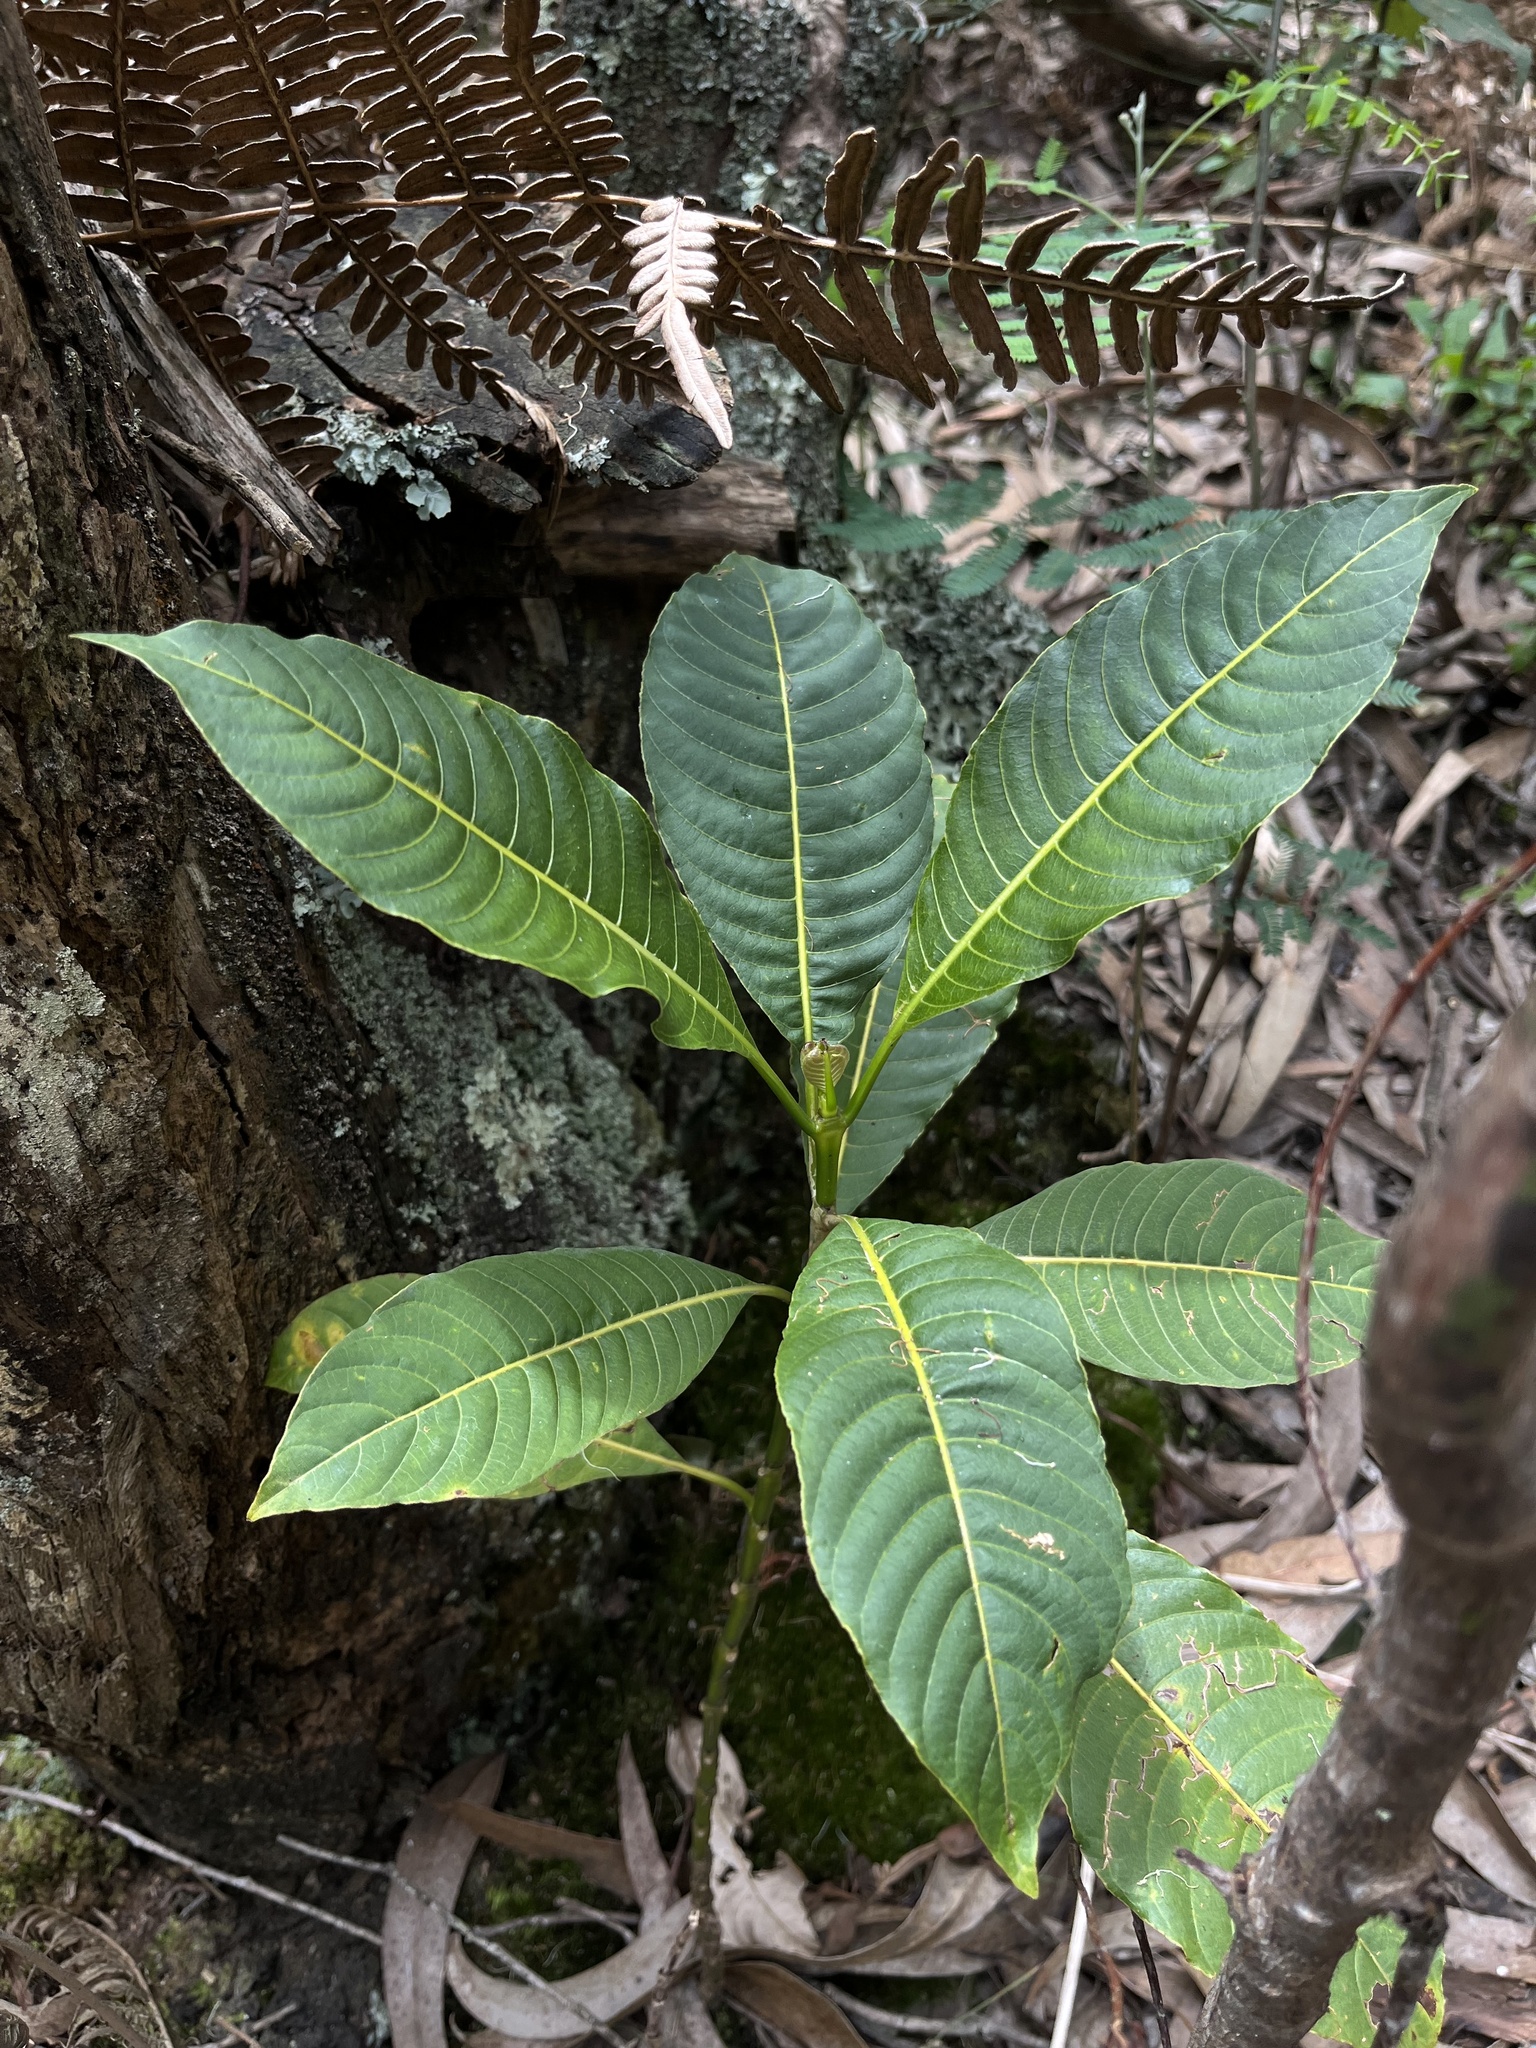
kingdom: Plantae
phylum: Tracheophyta
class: Magnoliopsida
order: Gentianales
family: Rubiaceae
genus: Palicourea
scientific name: Palicourea paniculata
